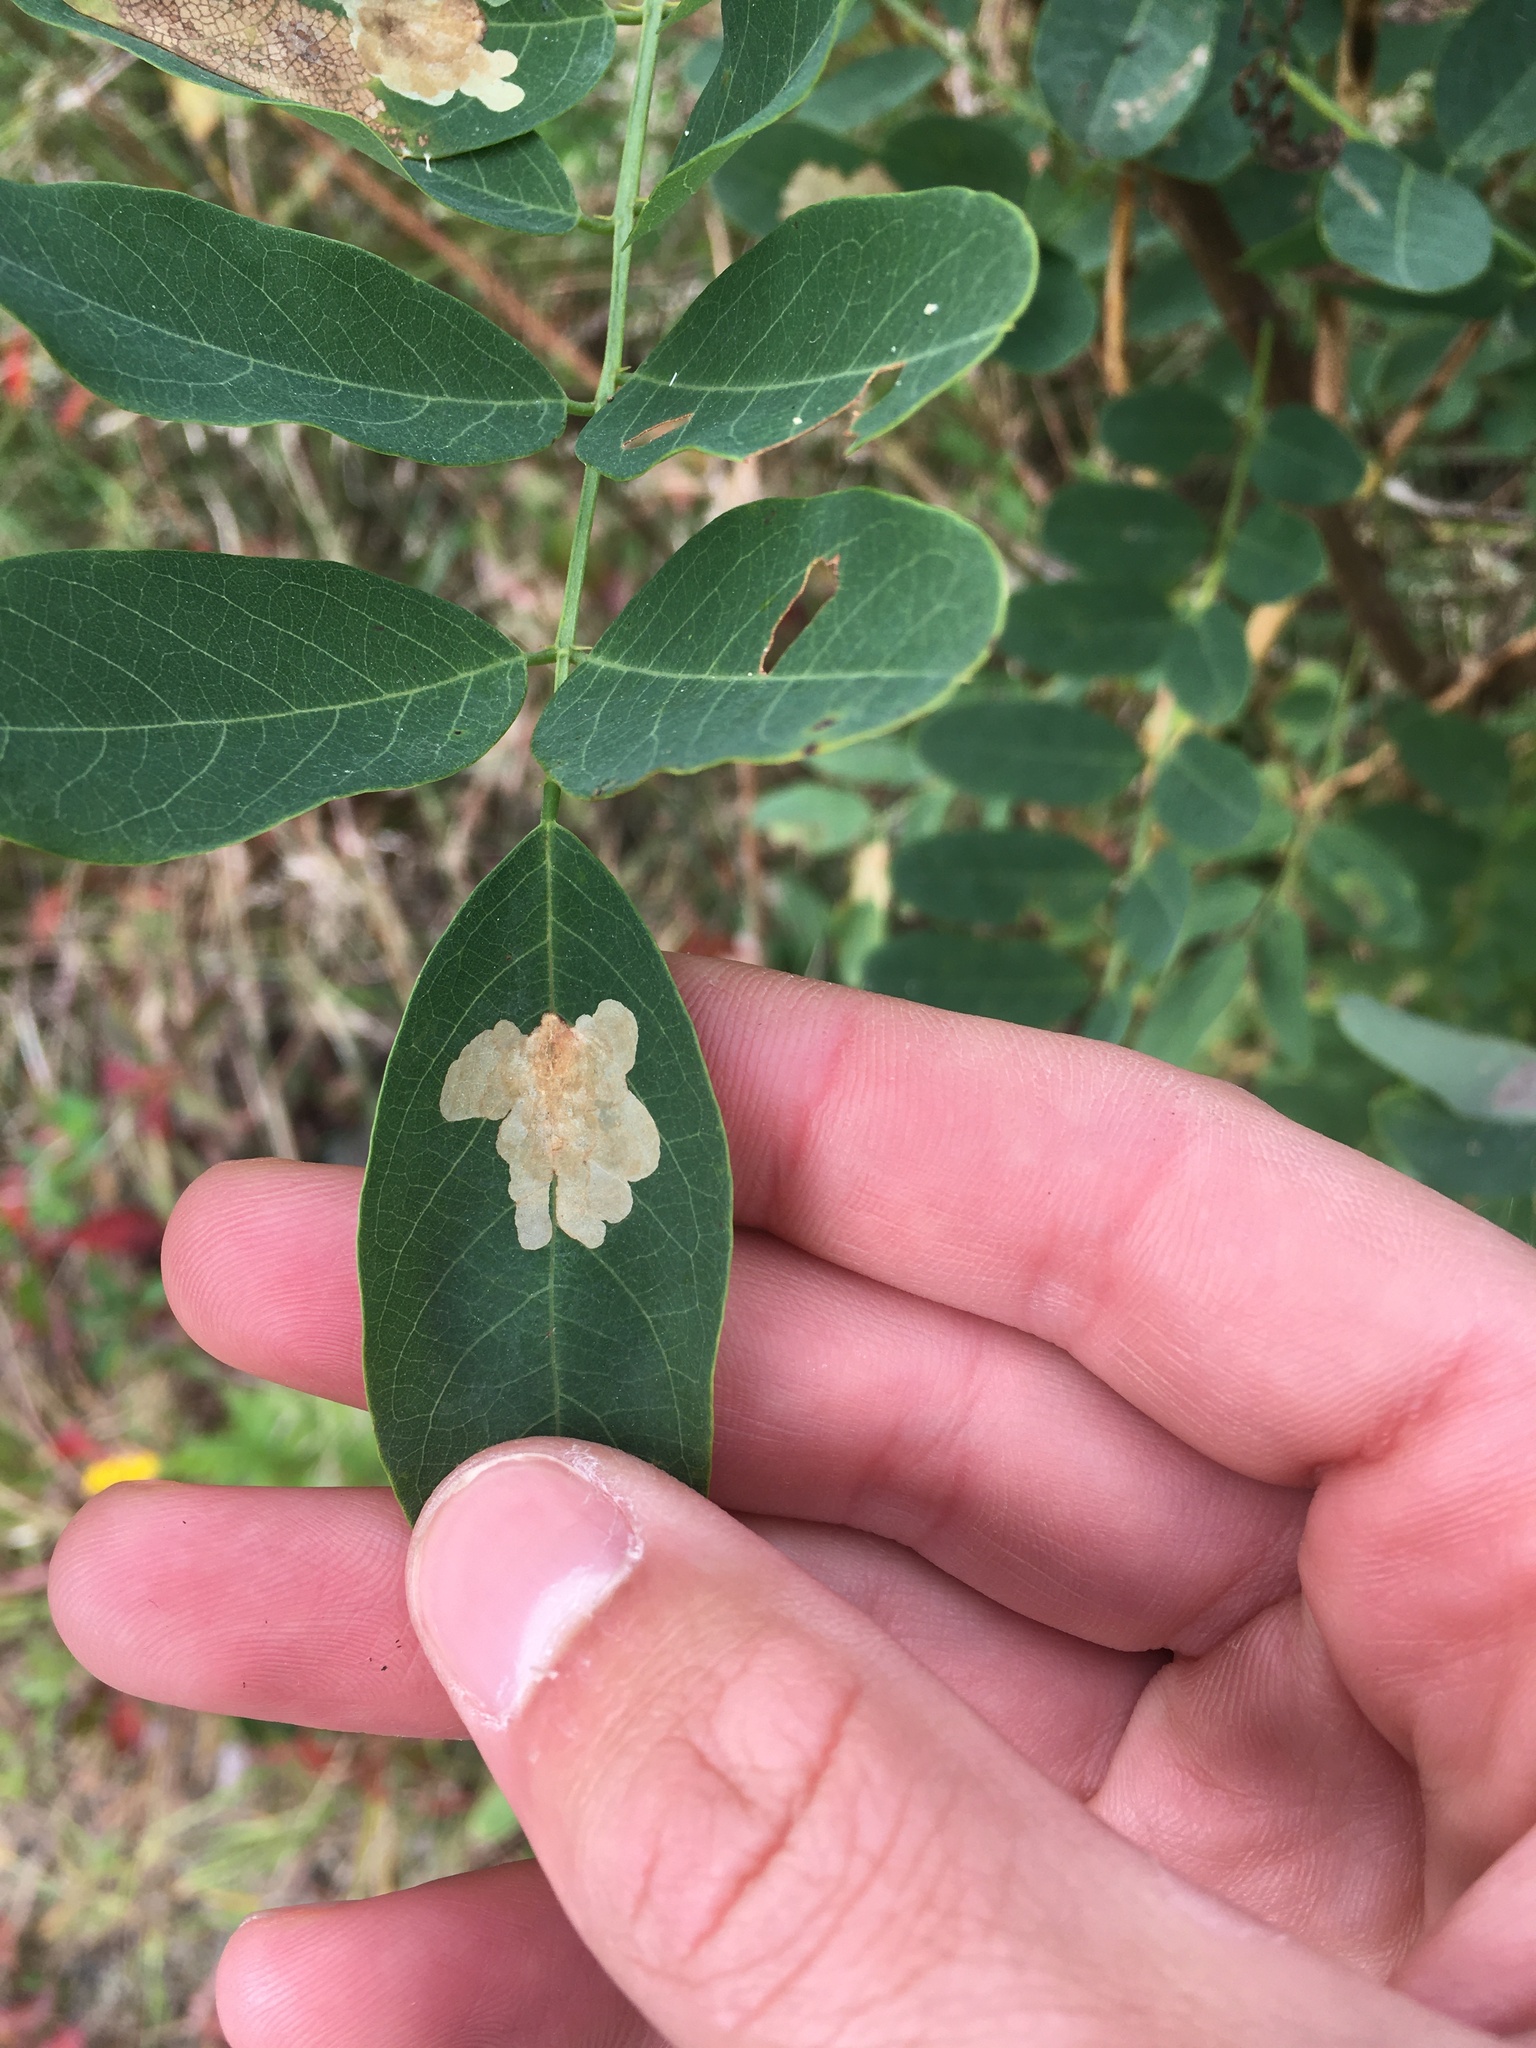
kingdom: Animalia
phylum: Arthropoda
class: Insecta
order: Lepidoptera
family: Gracillariidae
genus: Parectopa
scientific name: Parectopa robiniella
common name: Locust digitate leafminer
